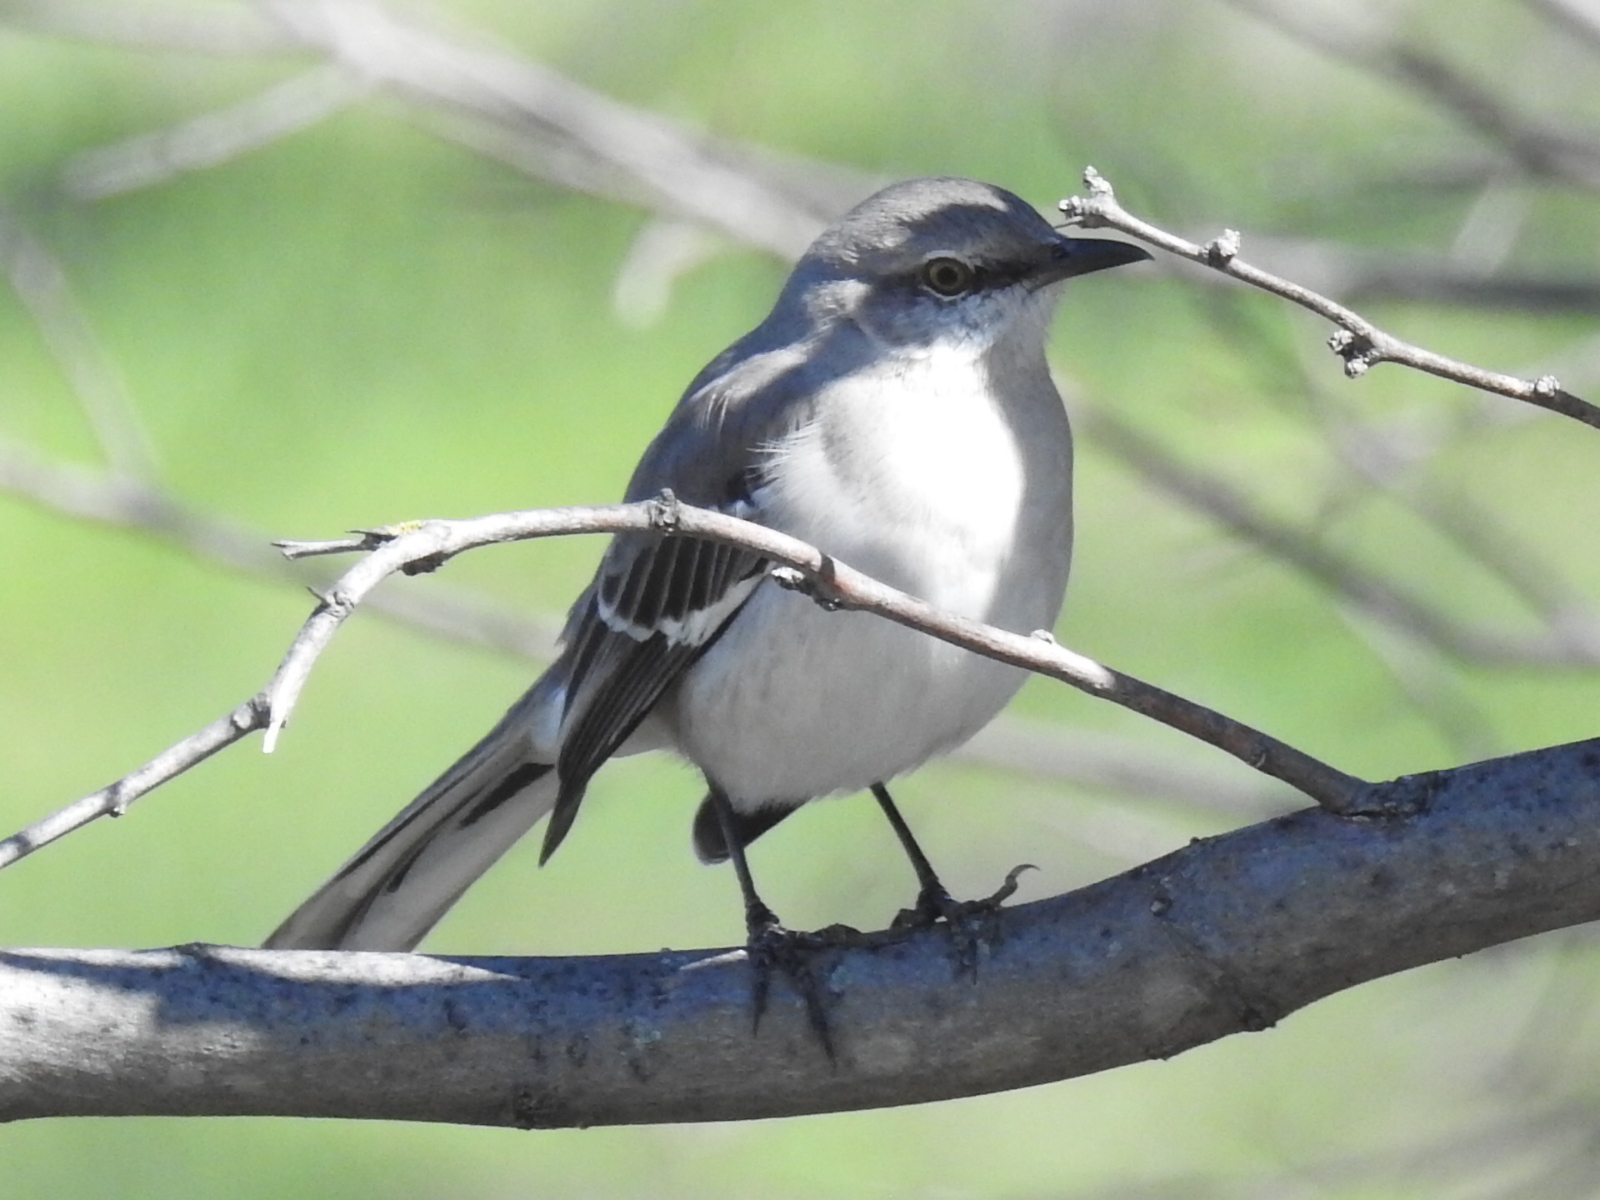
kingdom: Animalia
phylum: Chordata
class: Aves
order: Passeriformes
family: Mimidae
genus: Mimus
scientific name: Mimus polyglottos
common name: Northern mockingbird
